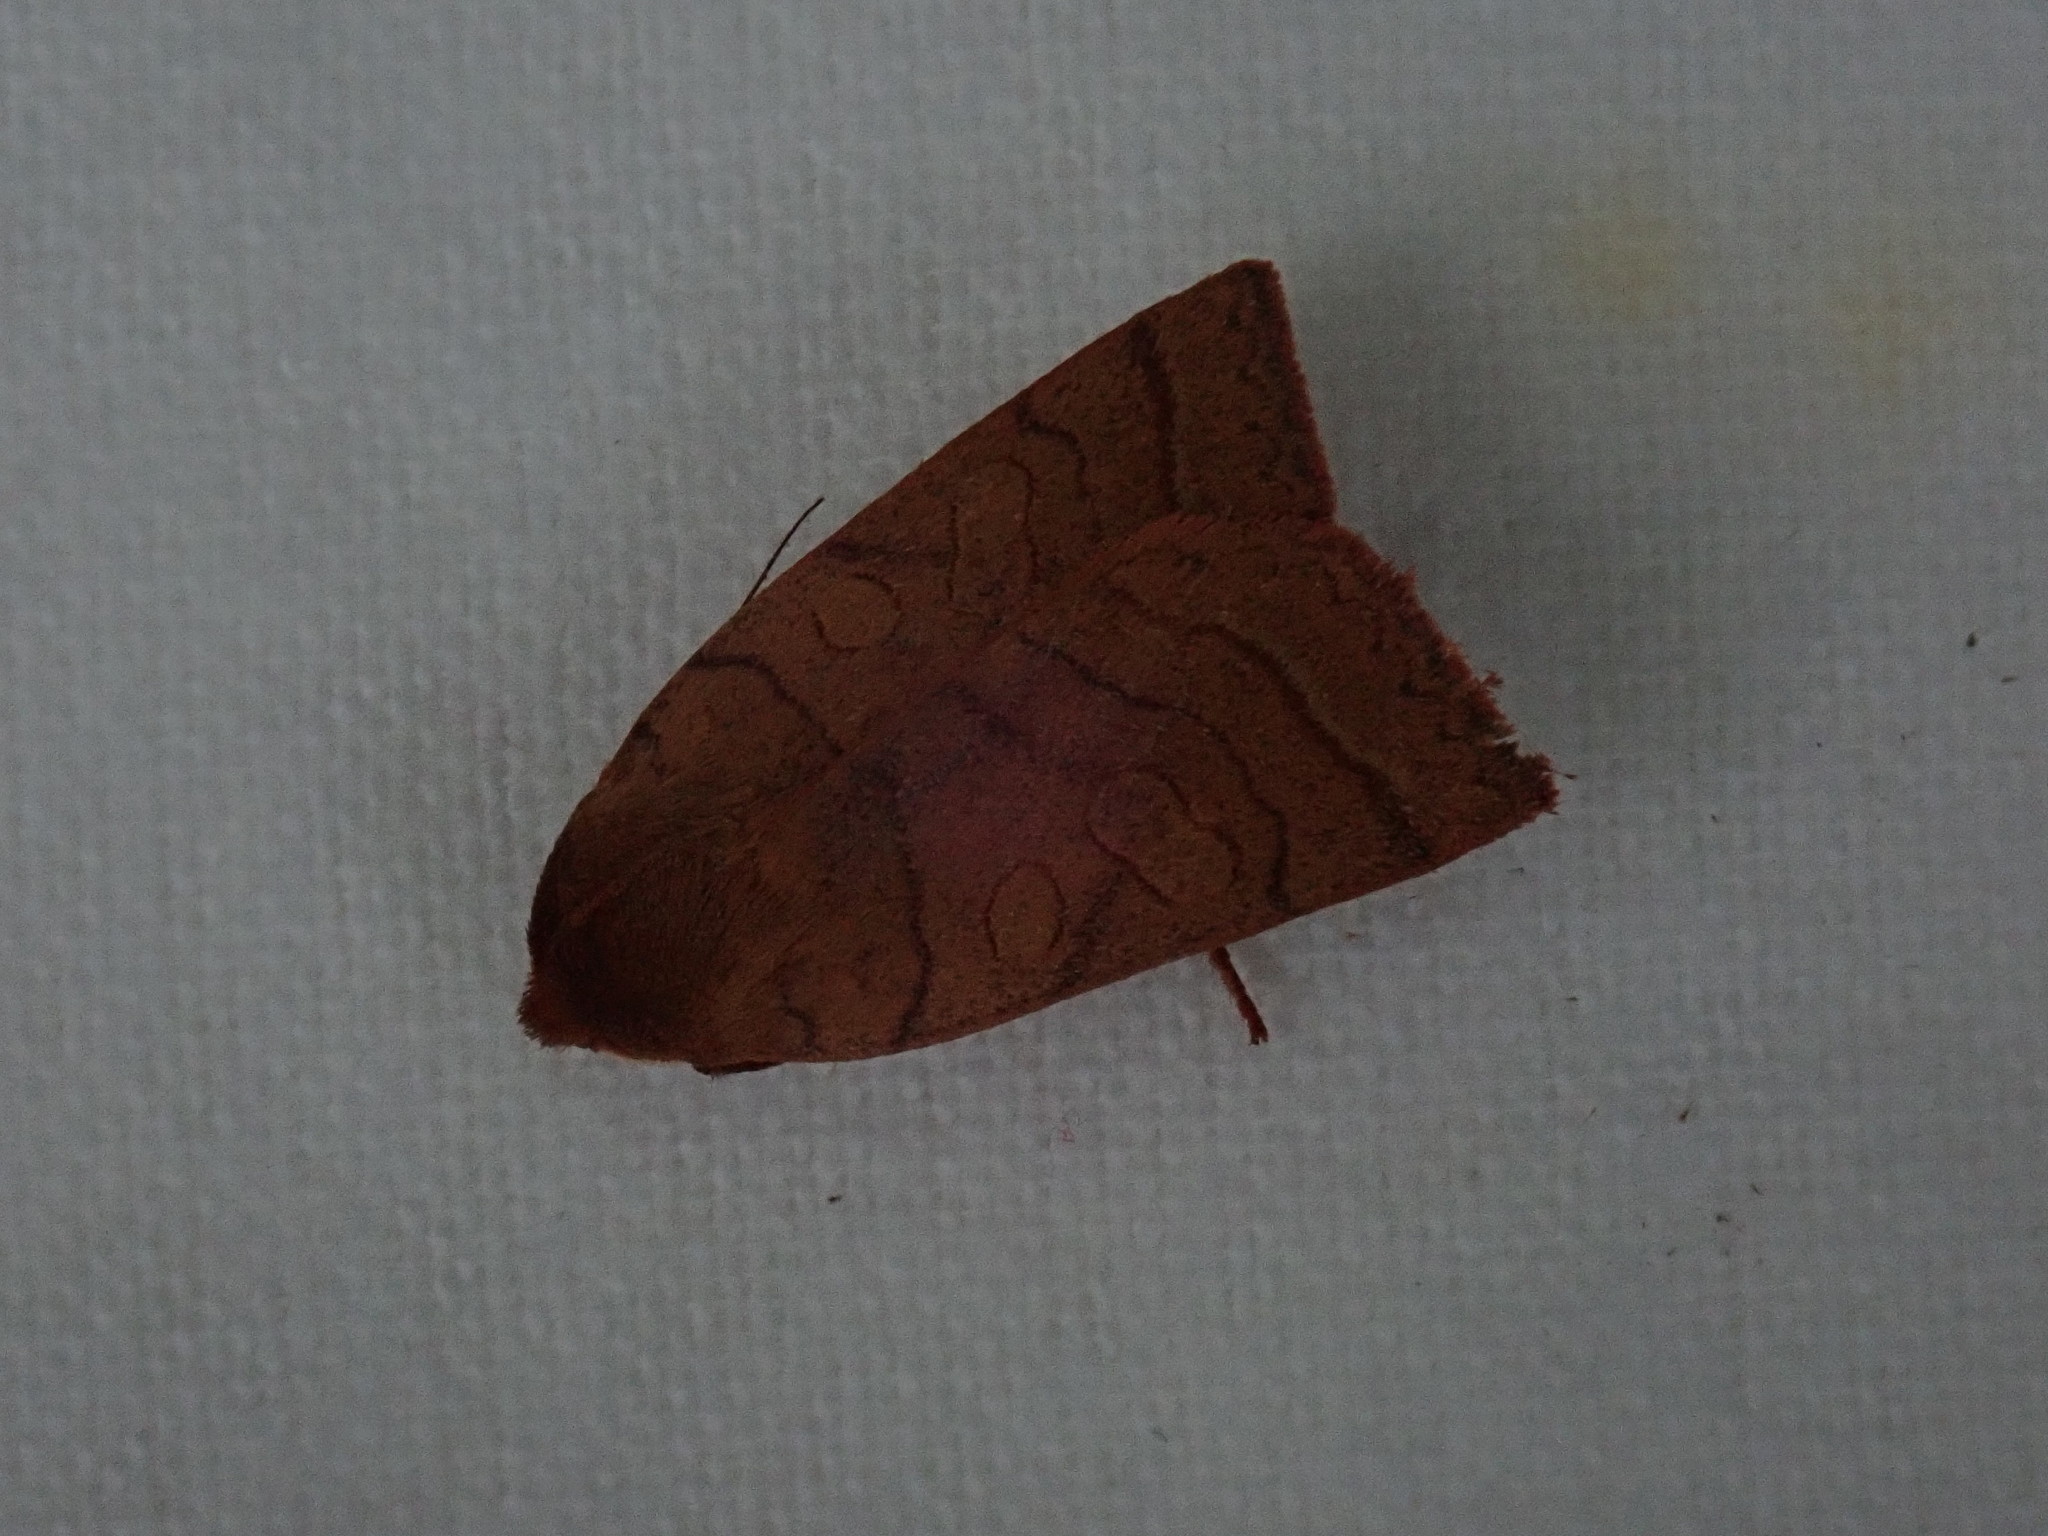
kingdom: Animalia
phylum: Arthropoda
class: Insecta
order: Lepidoptera
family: Noctuidae
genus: Epiglaea
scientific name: Epiglaea apiata
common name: Pointed sallow
